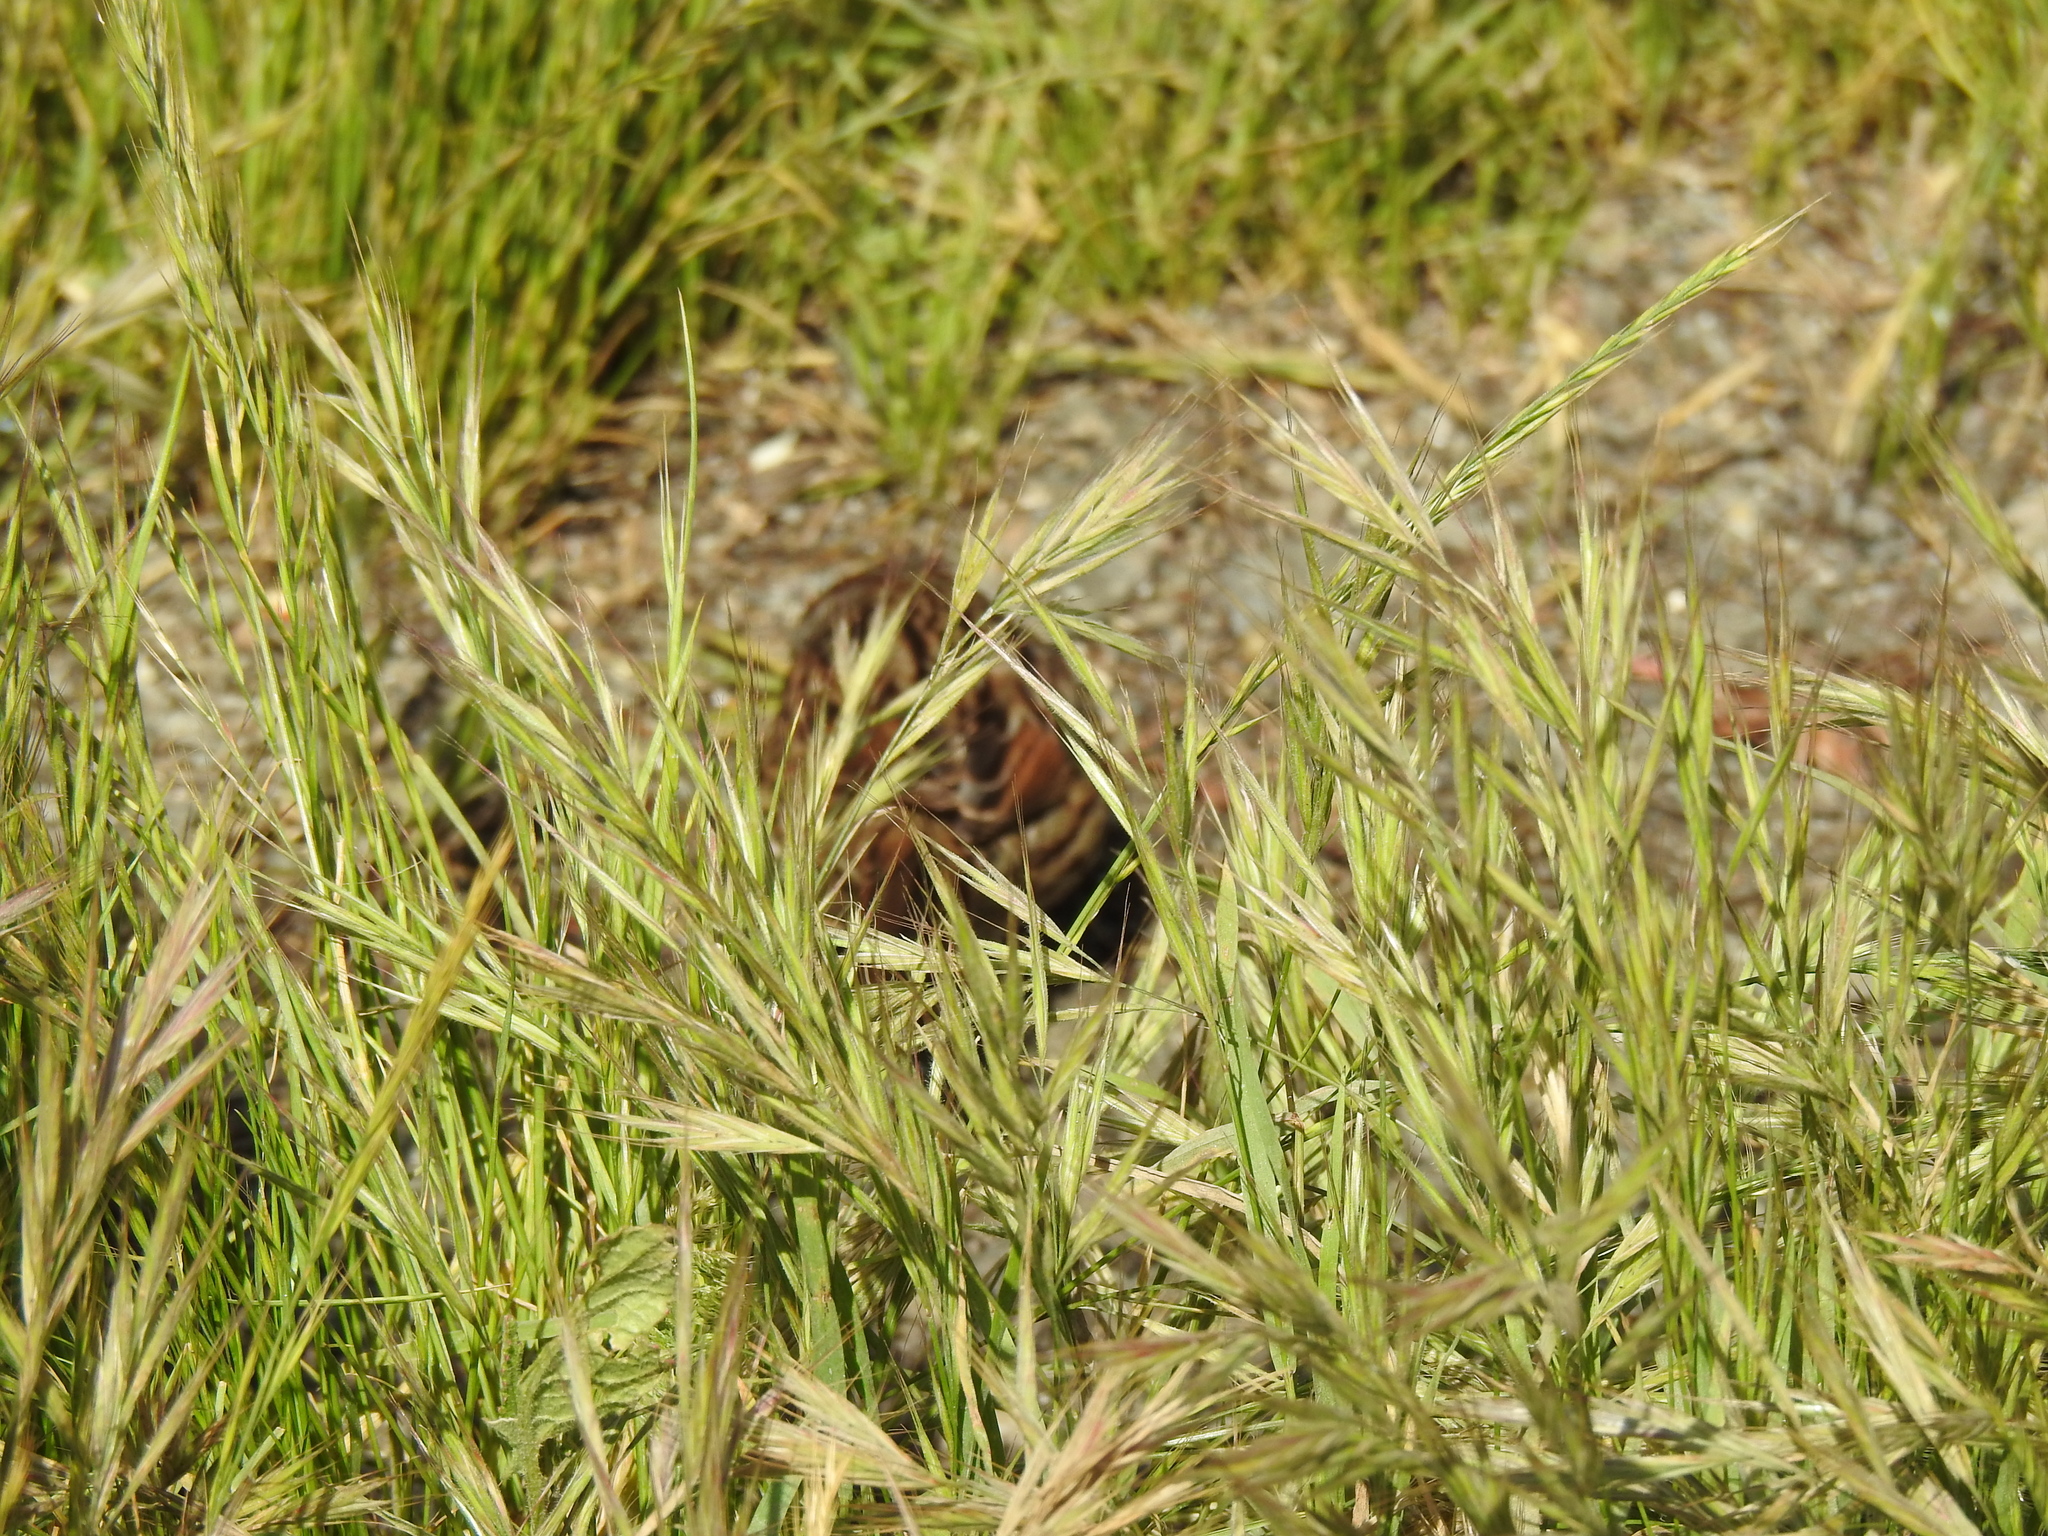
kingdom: Animalia
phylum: Chordata
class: Aves
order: Passeriformes
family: Passerellidae
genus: Melospiza
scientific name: Melospiza melodia
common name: Song sparrow
